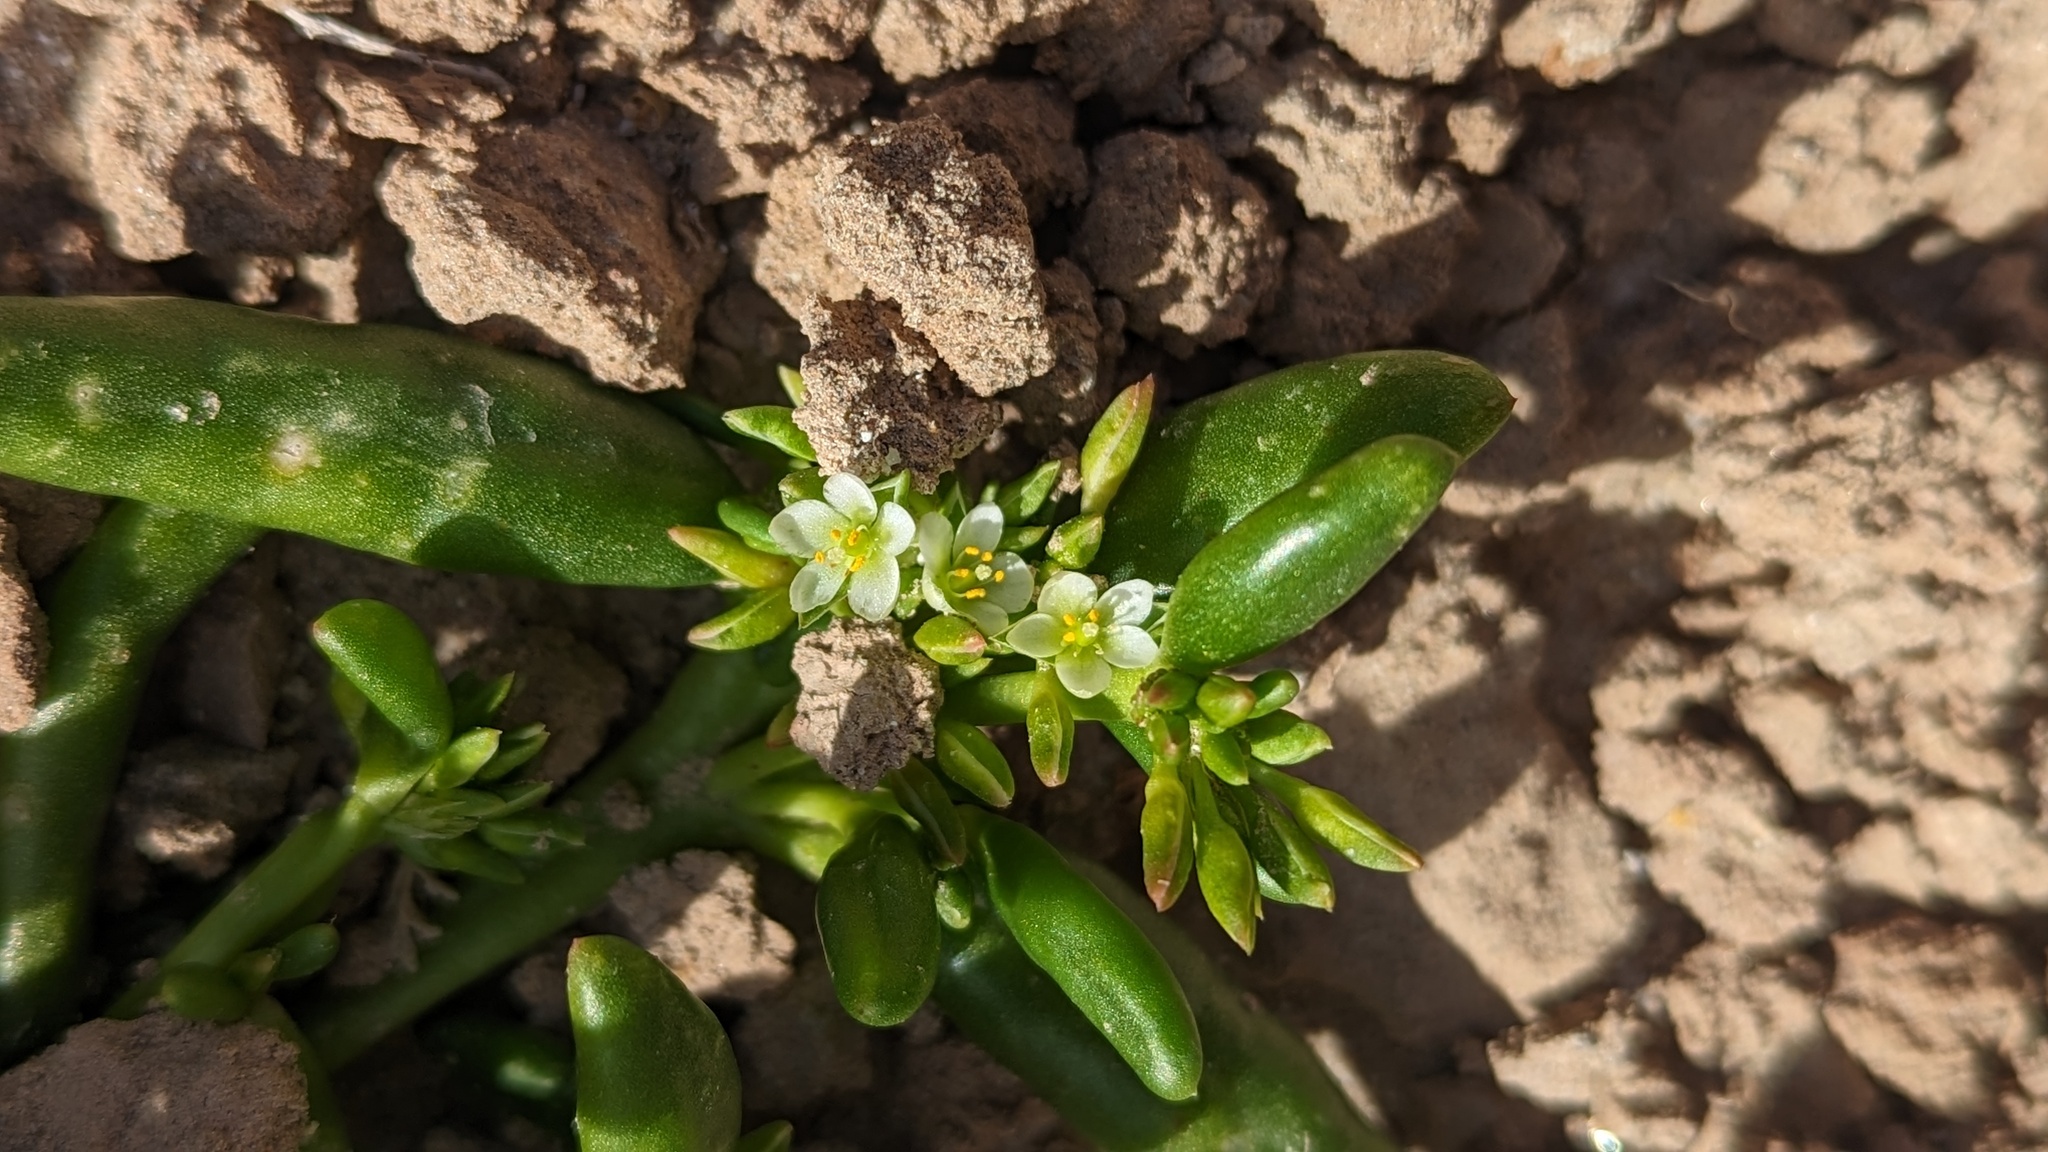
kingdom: Plantae
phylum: Tracheophyta
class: Magnoliopsida
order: Caryophyllales
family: Montiaceae
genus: Thingia
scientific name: Thingia ambigua
